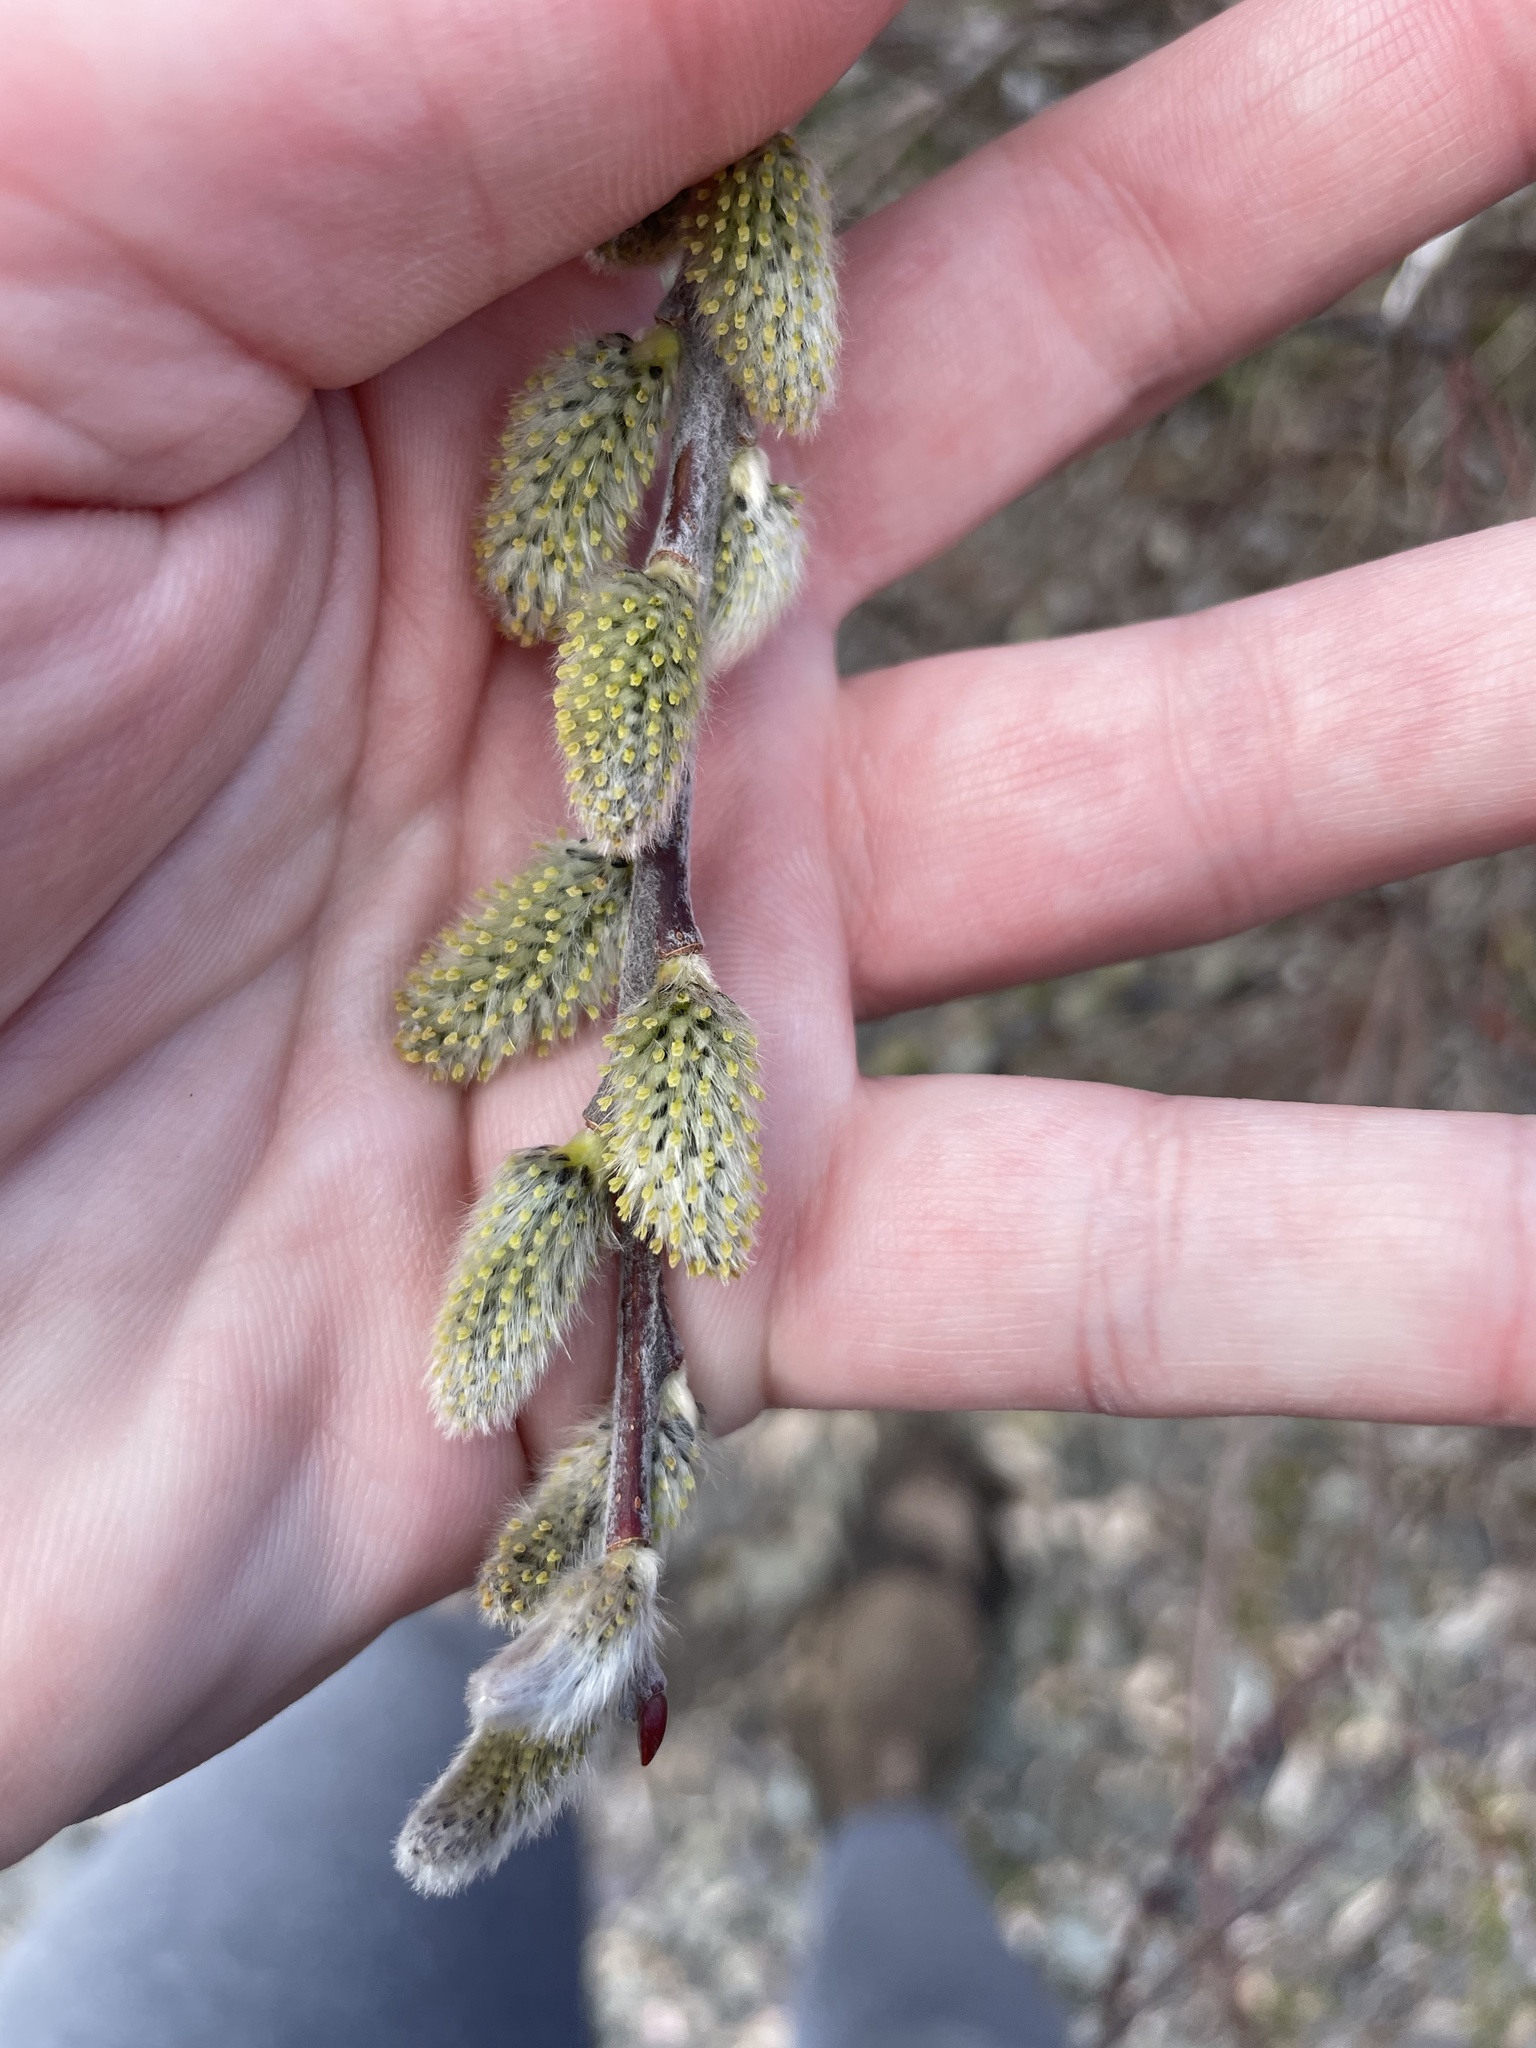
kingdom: Plantae
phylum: Tracheophyta
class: Magnoliopsida
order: Malpighiales
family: Salicaceae
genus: Salix
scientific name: Salix discolor
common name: Glaucous willow
